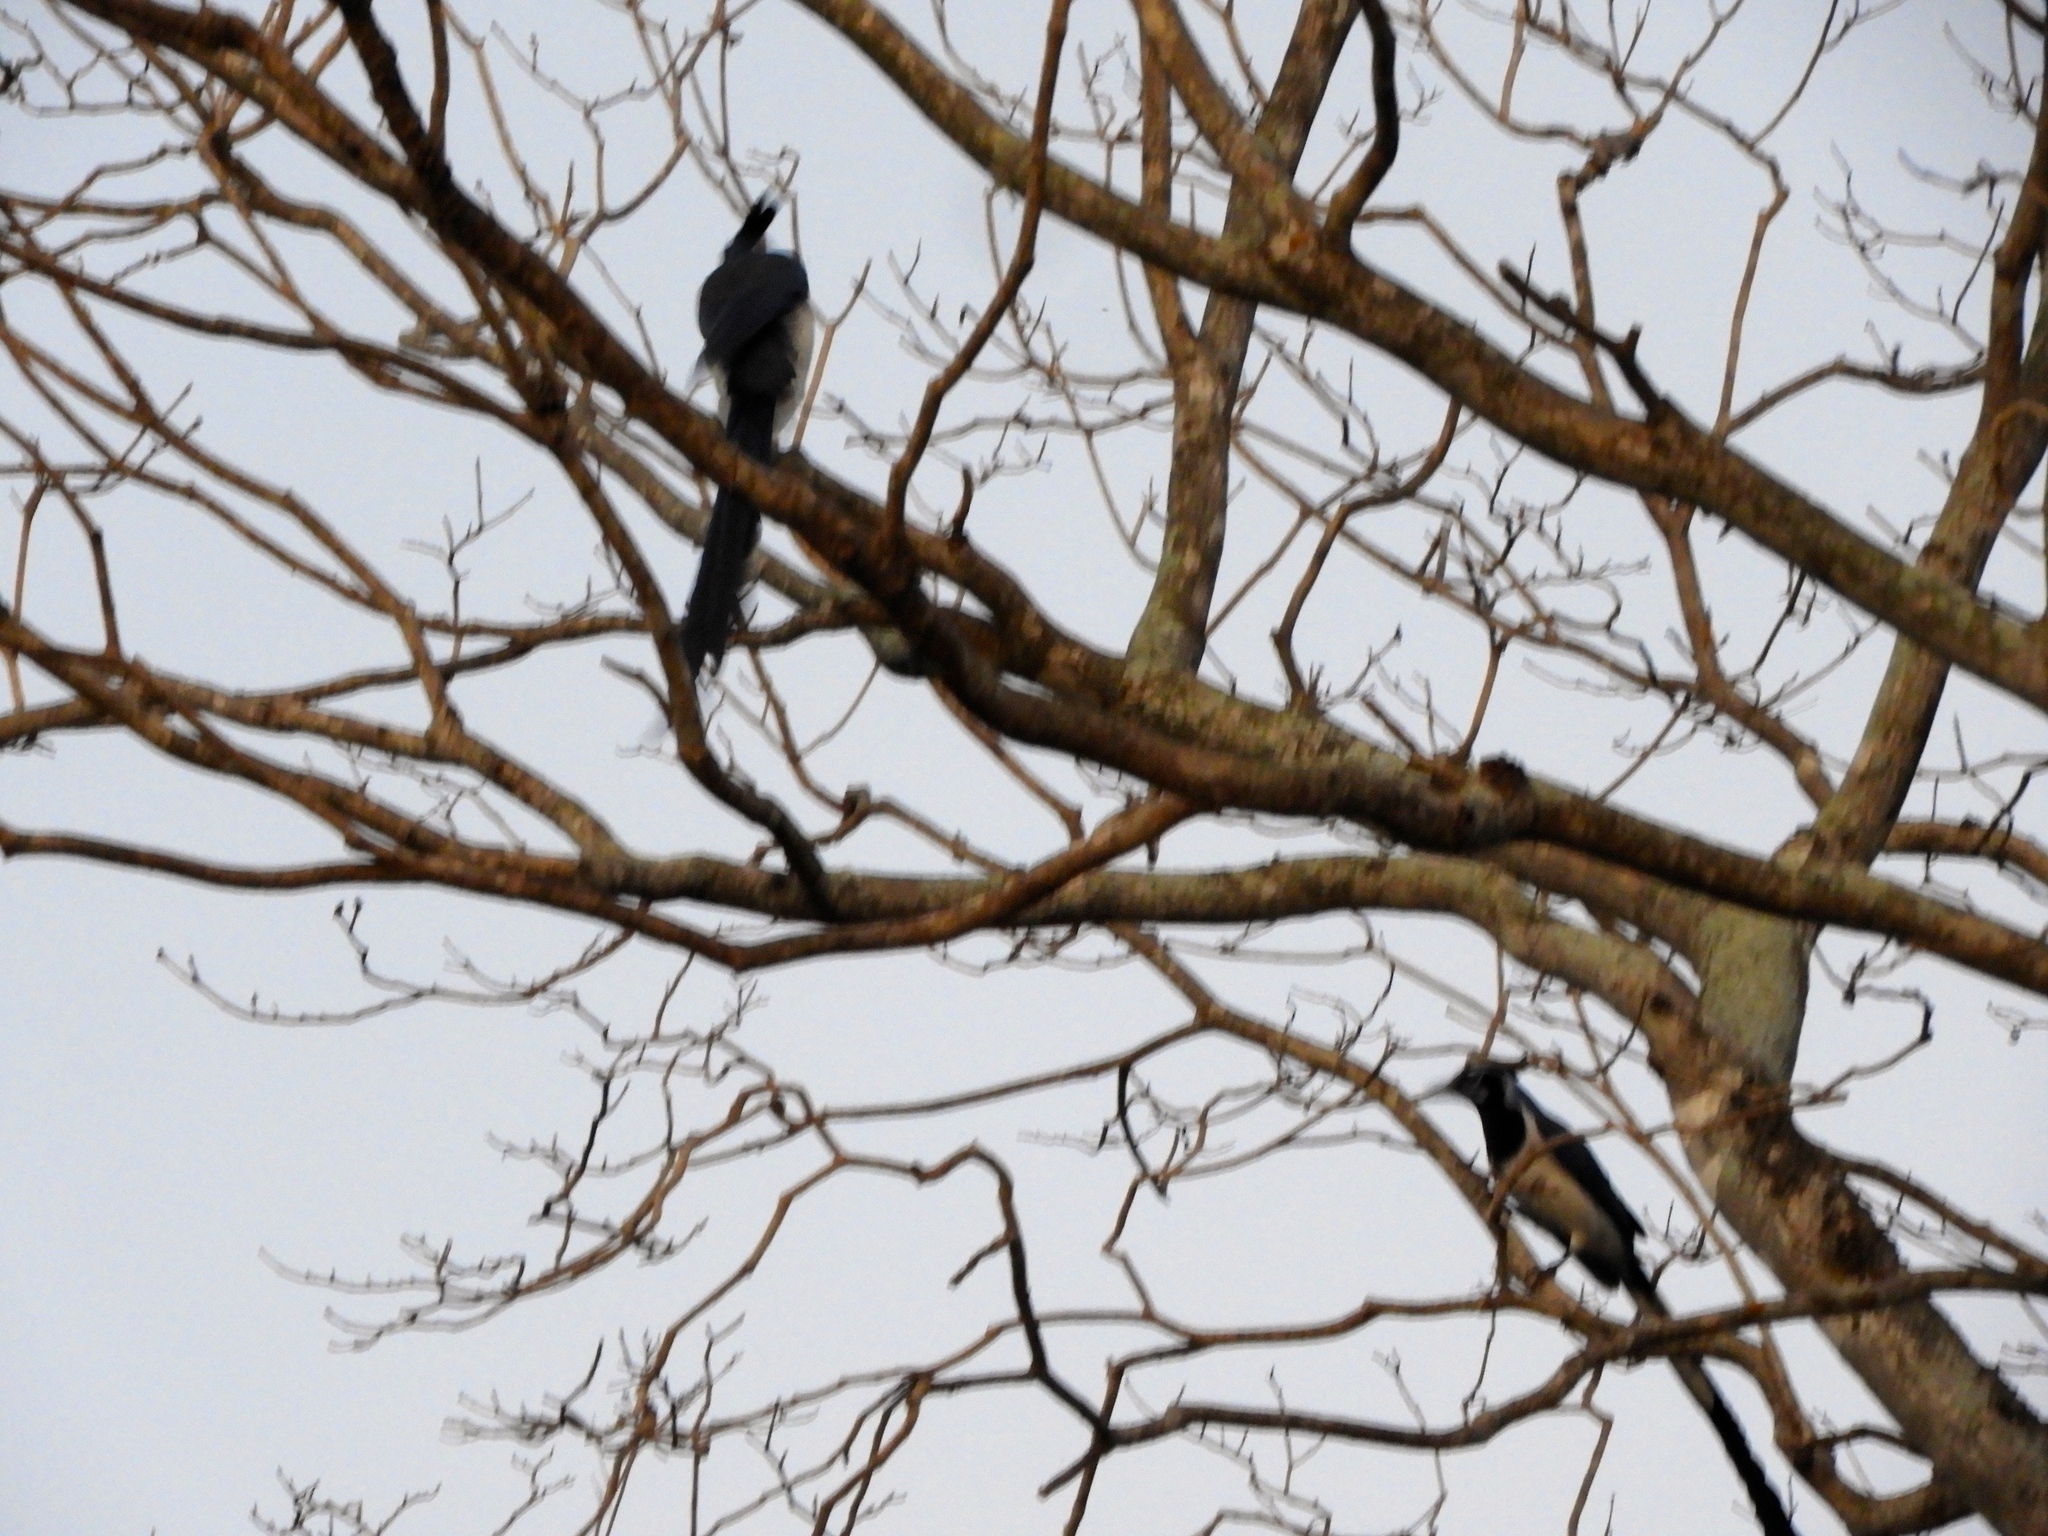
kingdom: Animalia
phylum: Chordata
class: Aves
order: Passeriformes
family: Corvidae
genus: Calocitta
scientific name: Calocitta colliei
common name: Black-throated magpie-jay
